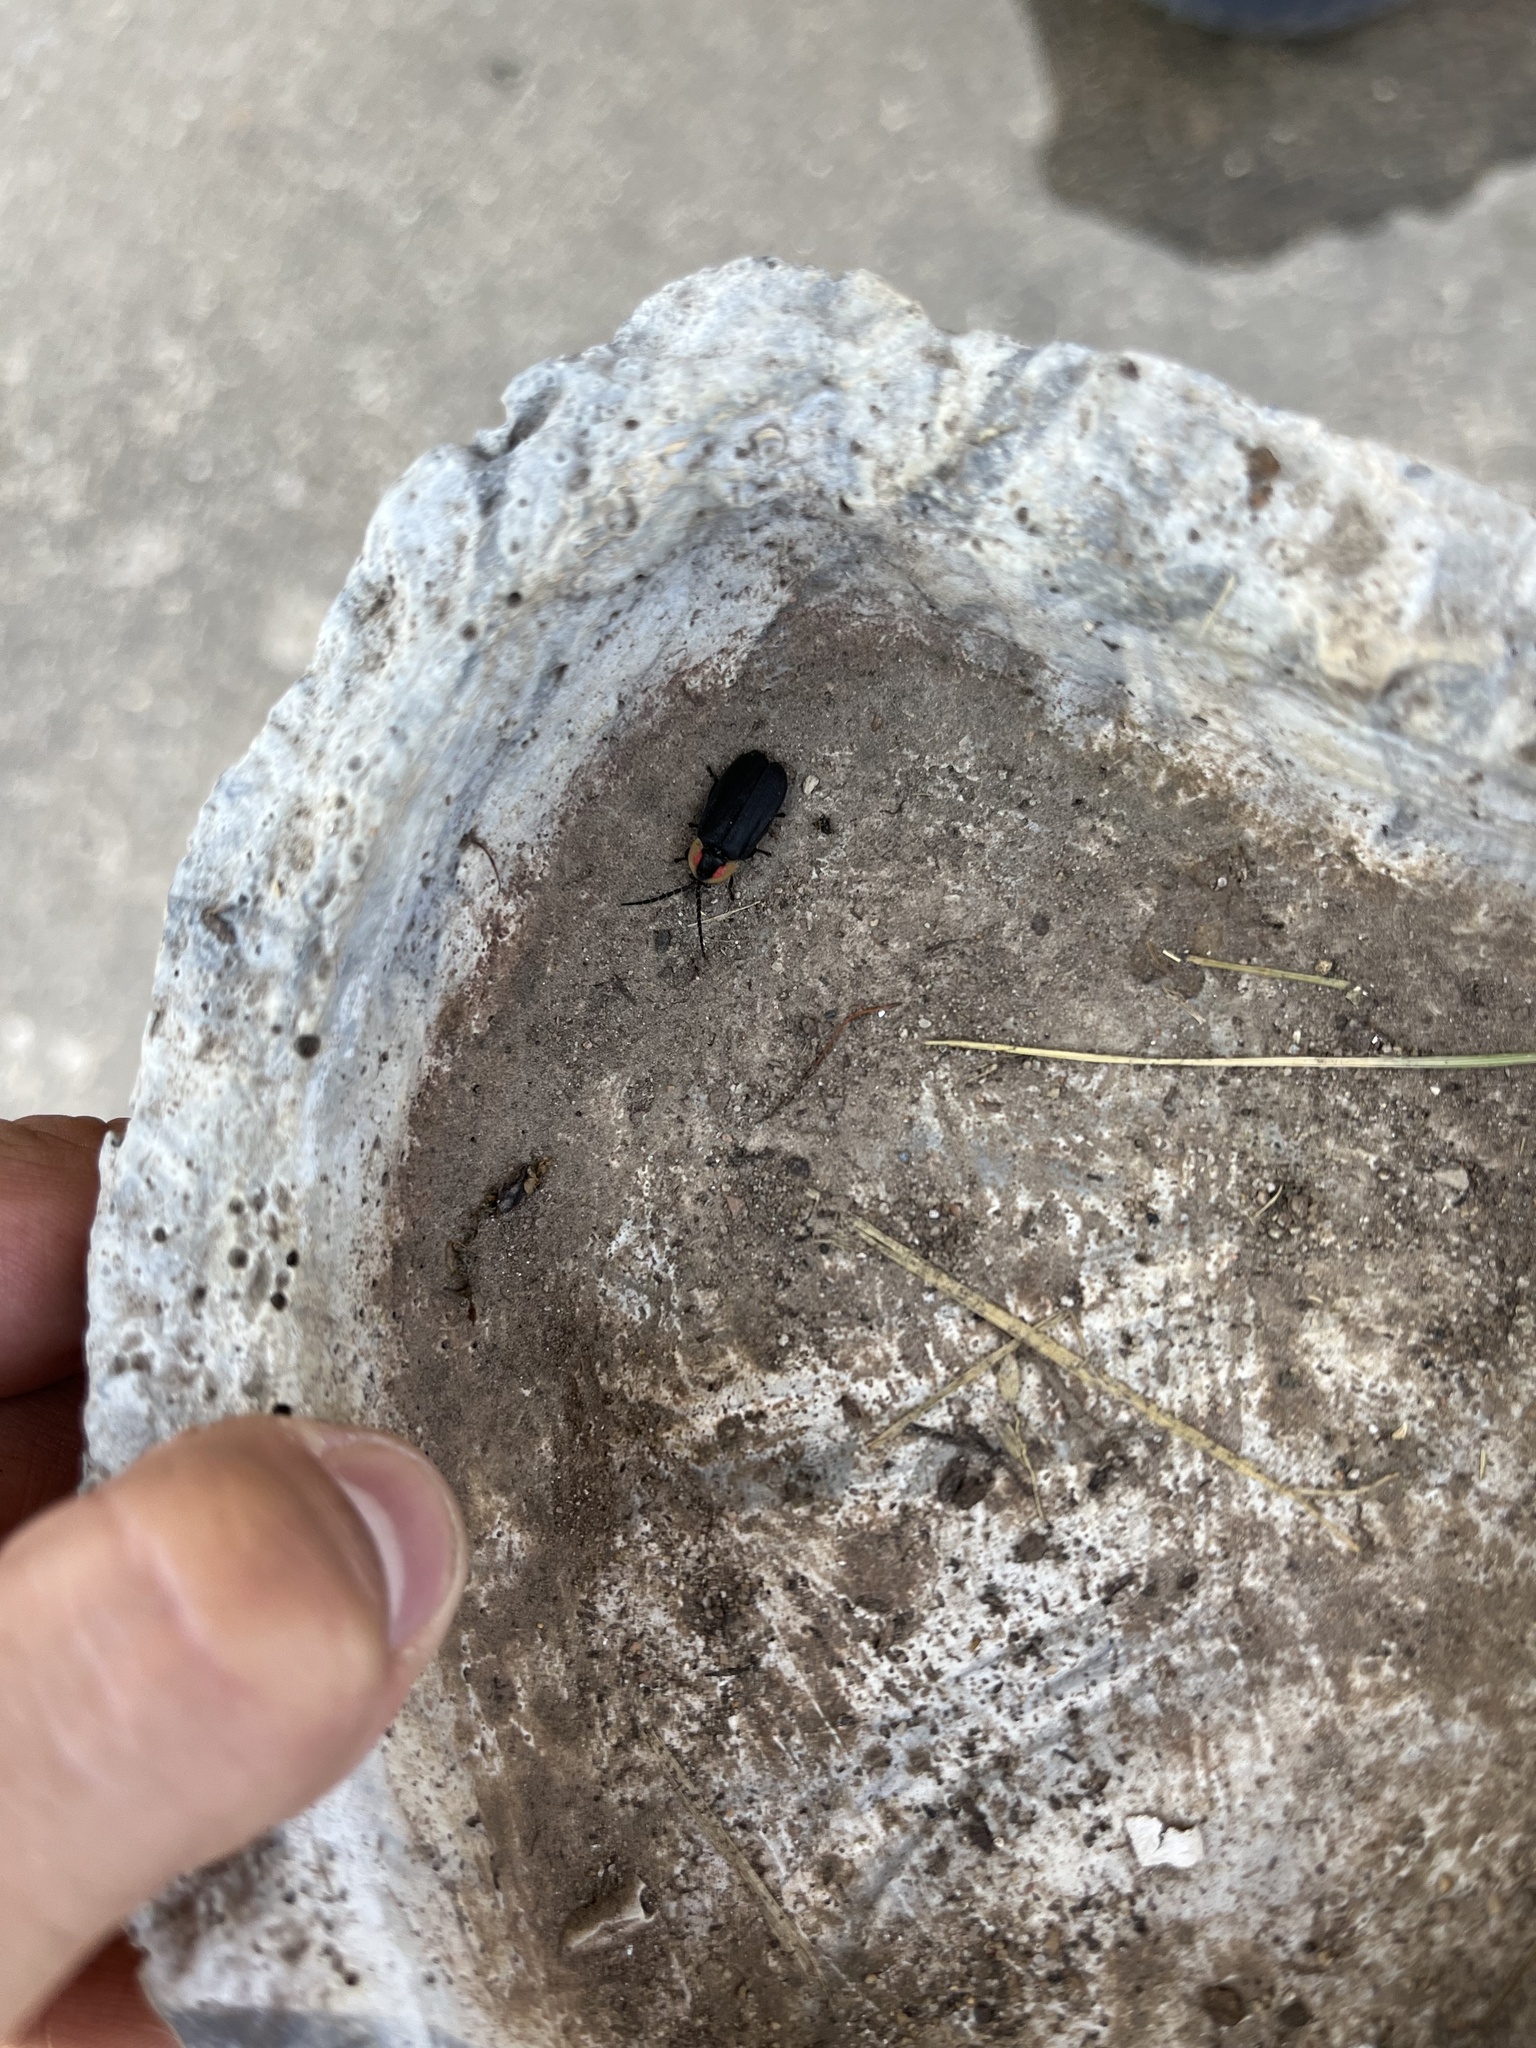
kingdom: Animalia
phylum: Arthropoda
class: Insecta
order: Coleoptera
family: Lampyridae
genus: Lucidota
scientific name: Lucidota atra
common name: Black firefly
